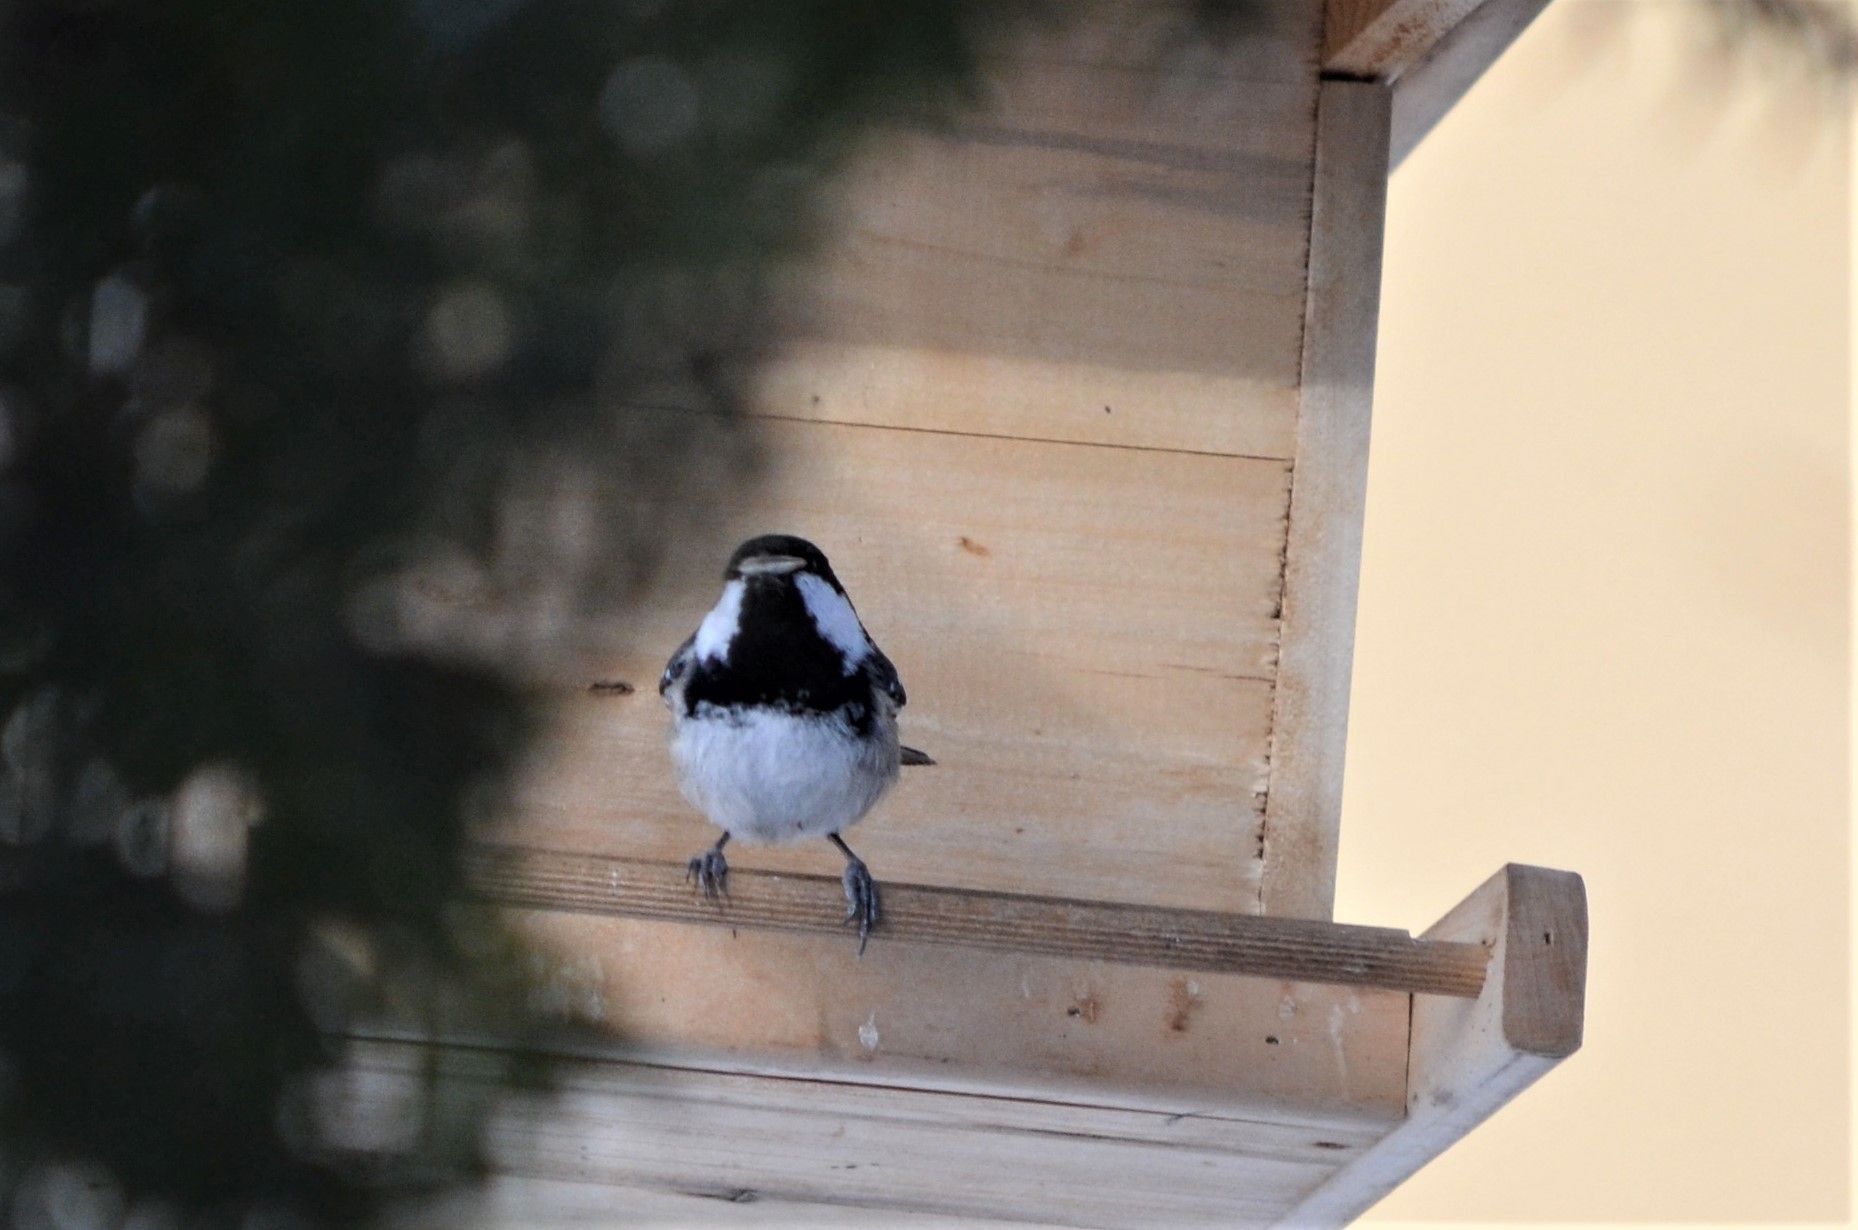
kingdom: Animalia
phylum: Chordata
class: Aves
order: Passeriformes
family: Paridae
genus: Periparus
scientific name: Periparus ater
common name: Coal tit
